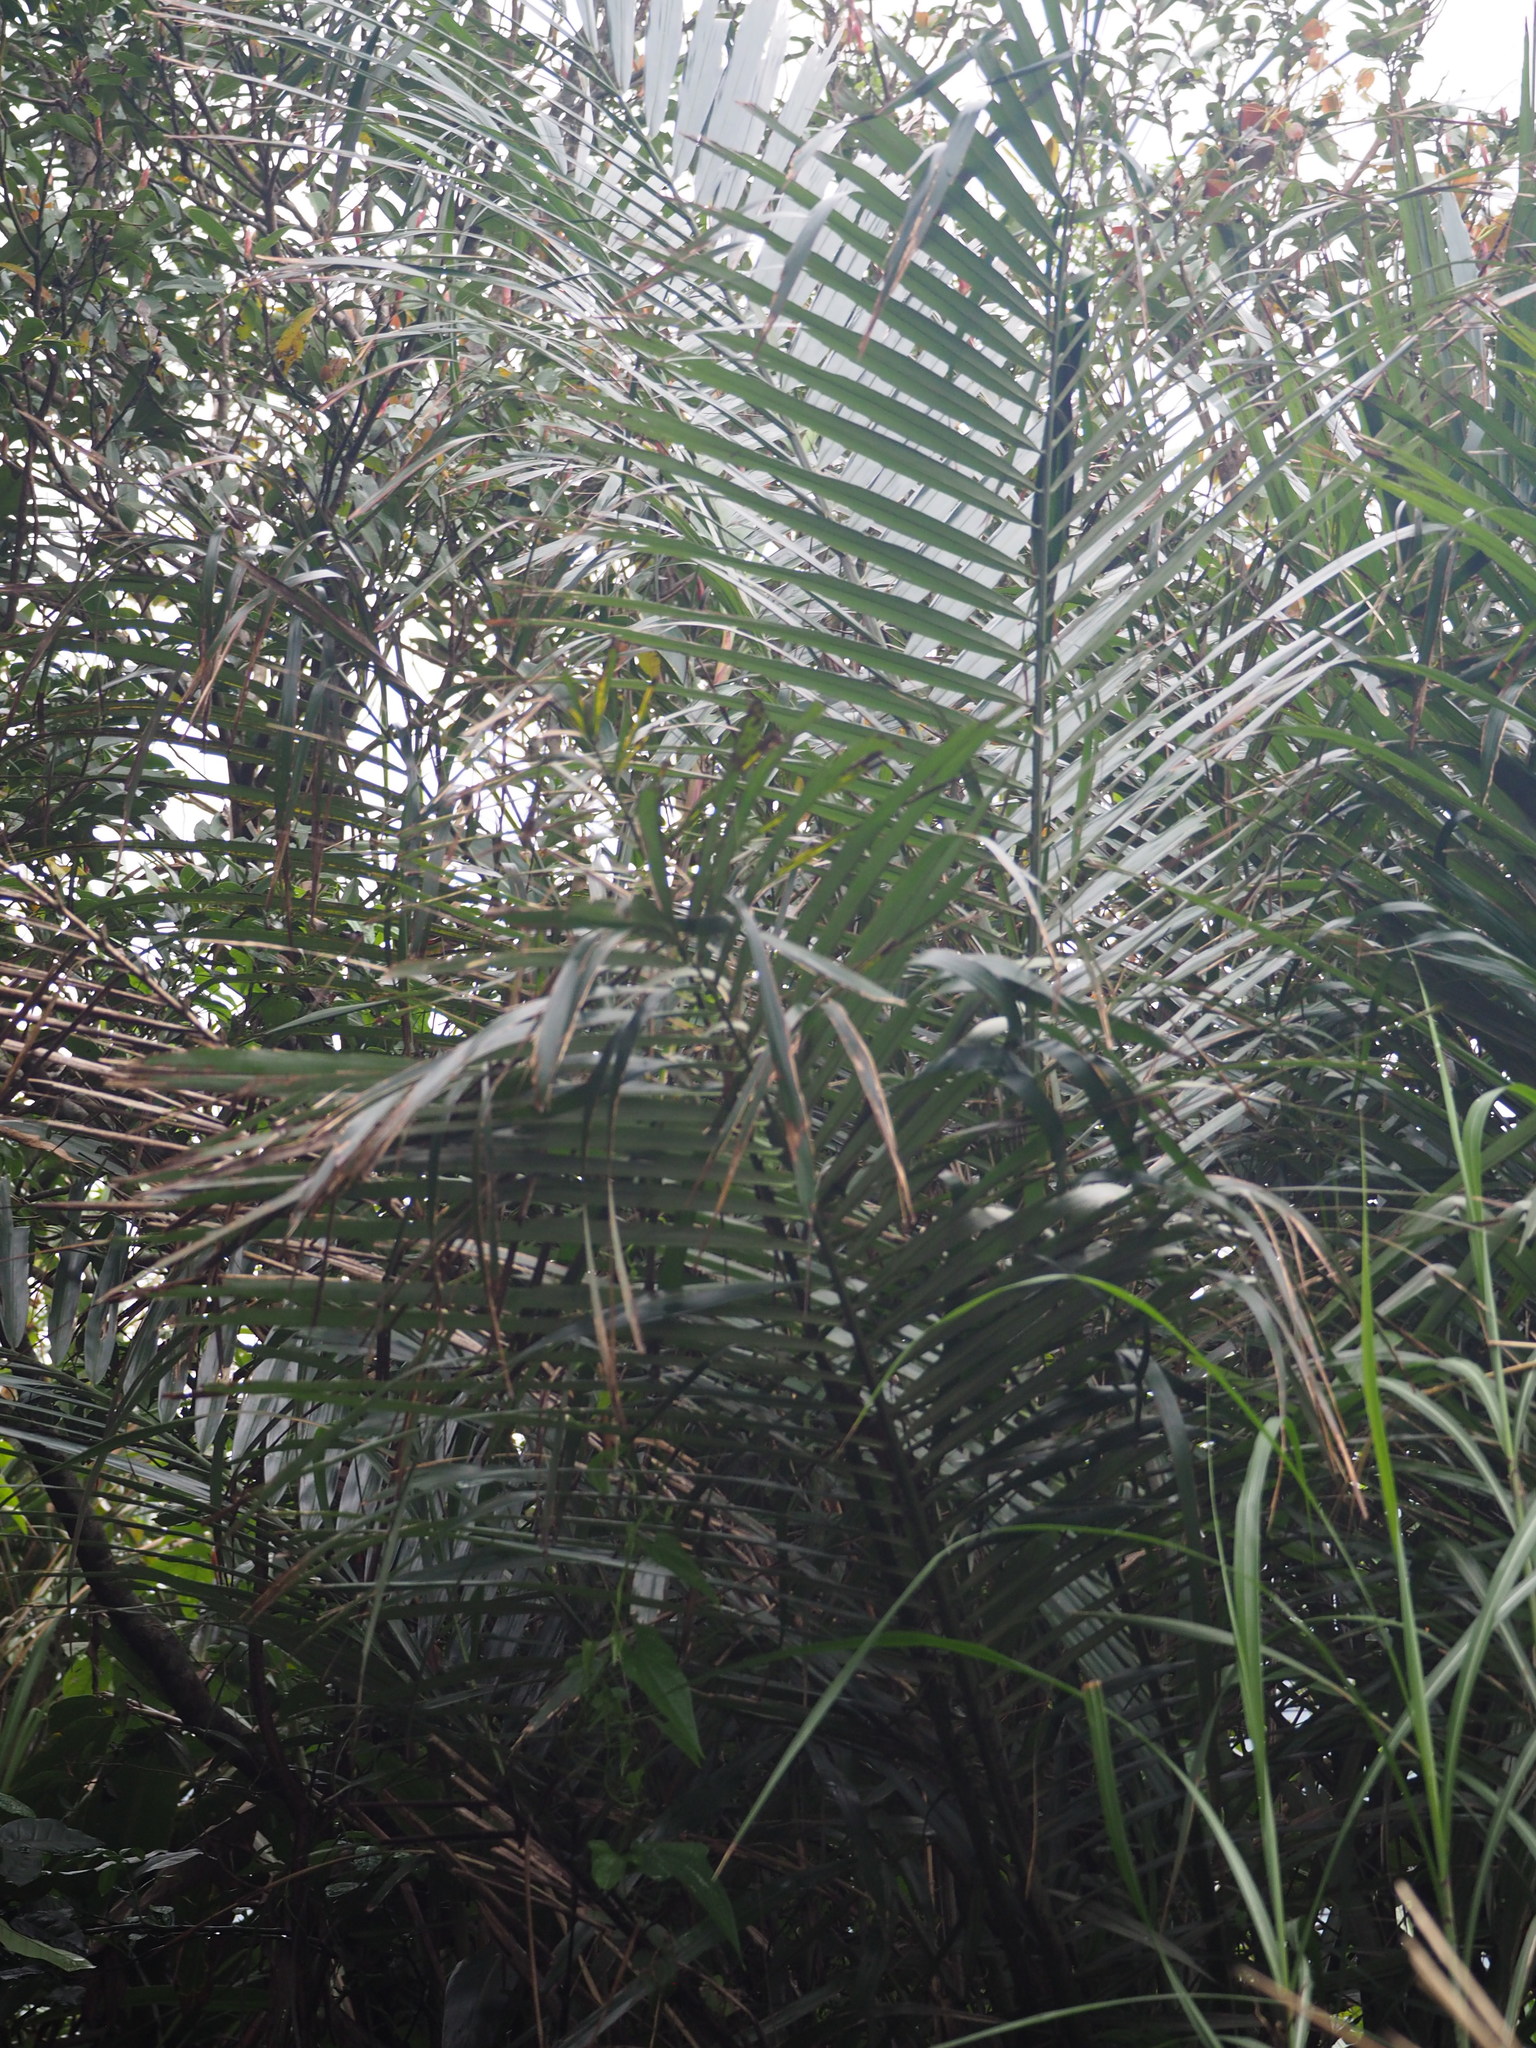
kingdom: Plantae
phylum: Tracheophyta
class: Liliopsida
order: Arecales
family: Arecaceae
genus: Arenga
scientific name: Arenga engleri
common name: Formosan sugar palm
